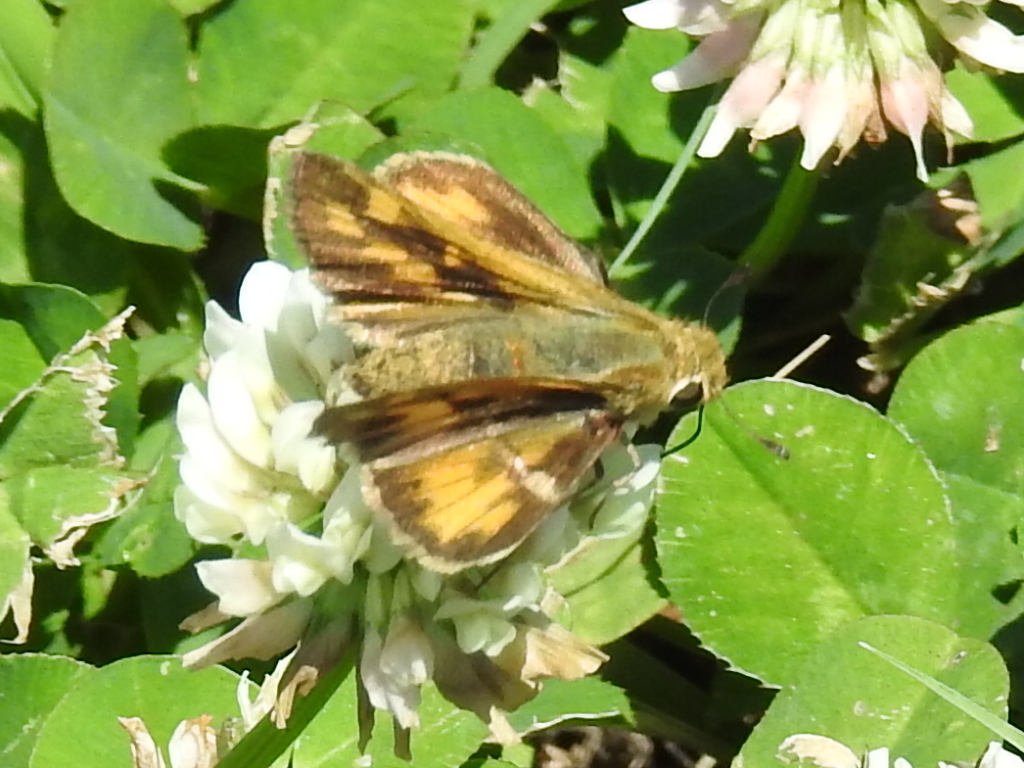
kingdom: Animalia
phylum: Arthropoda
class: Insecta
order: Lepidoptera
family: Hesperiidae
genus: Hylephila
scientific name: Hylephila phyleus
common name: Fiery skipper
